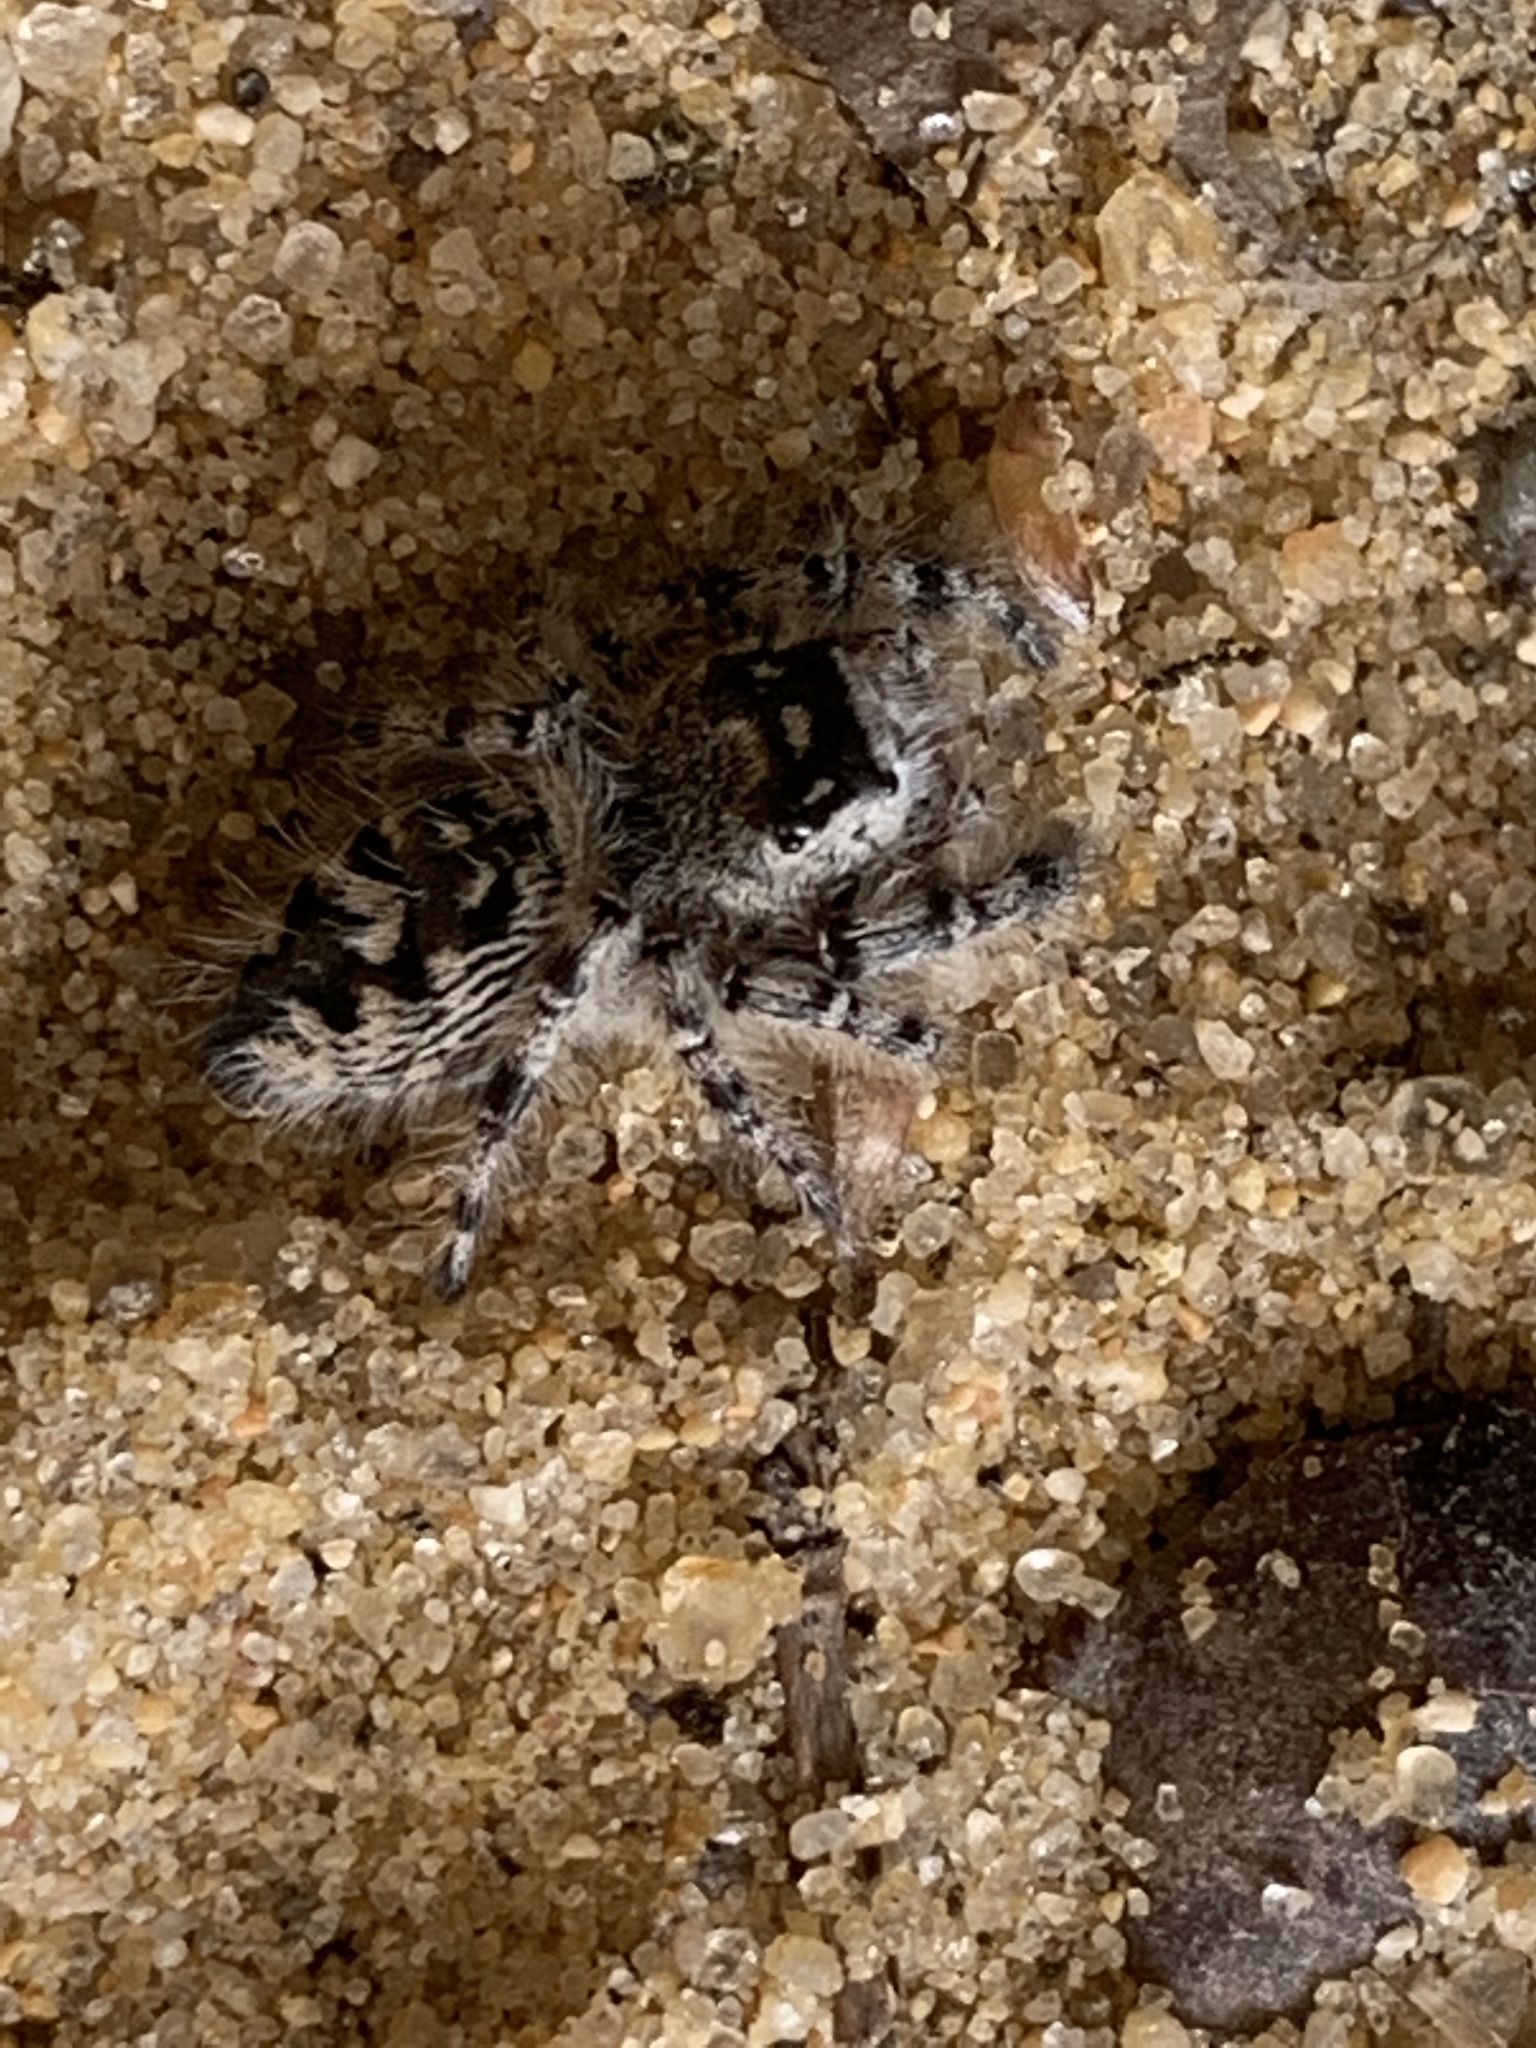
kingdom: Animalia
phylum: Arthropoda
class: Arachnida
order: Araneae
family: Salticidae
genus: Phidippus
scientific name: Phidippus otiosus
